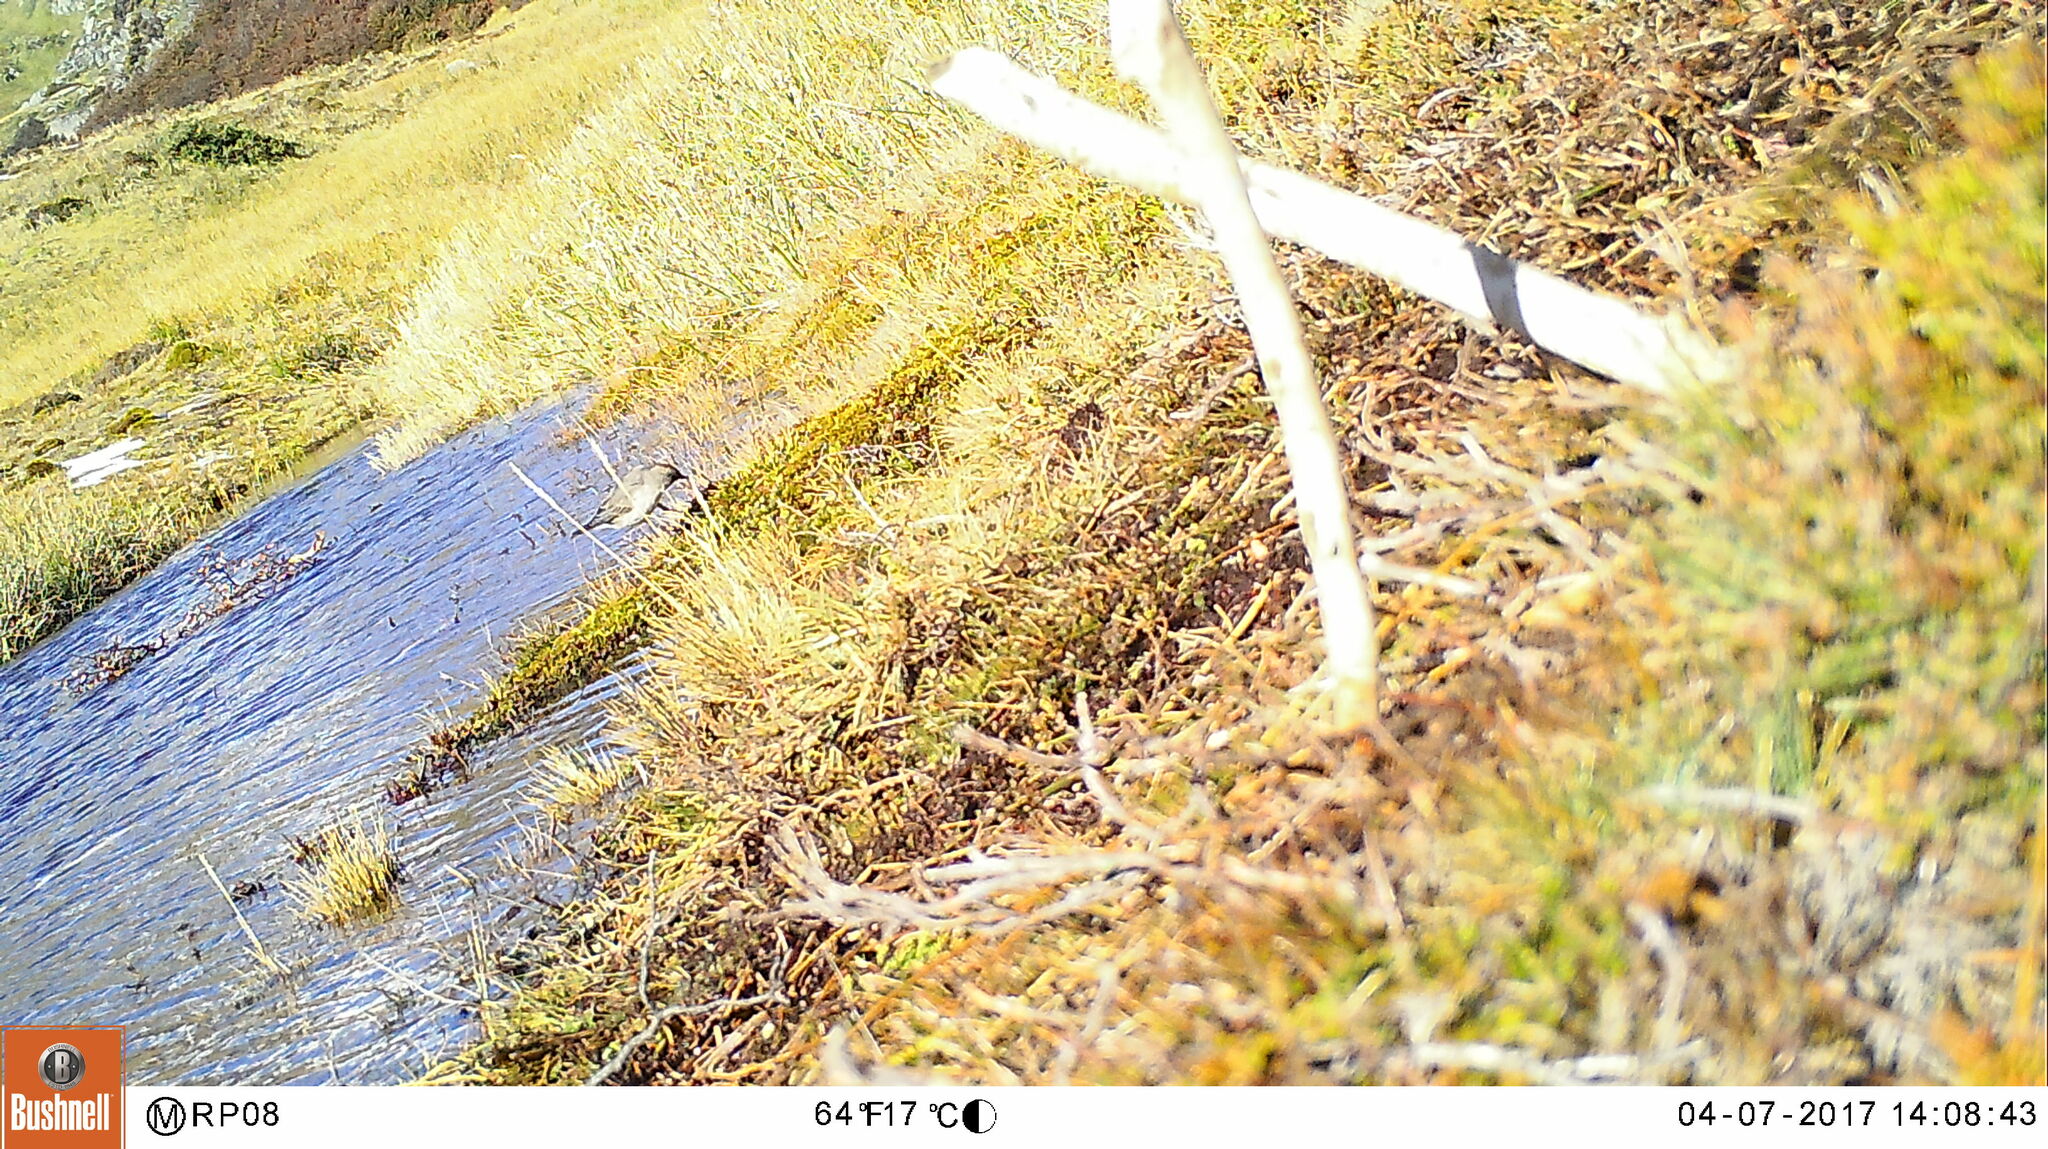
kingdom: Animalia
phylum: Chordata
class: Aves
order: Passeriformes
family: Tyrannidae
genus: Muscisaxicola
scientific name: Muscisaxicola maclovianus
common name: Dark-faced ground tyrant
